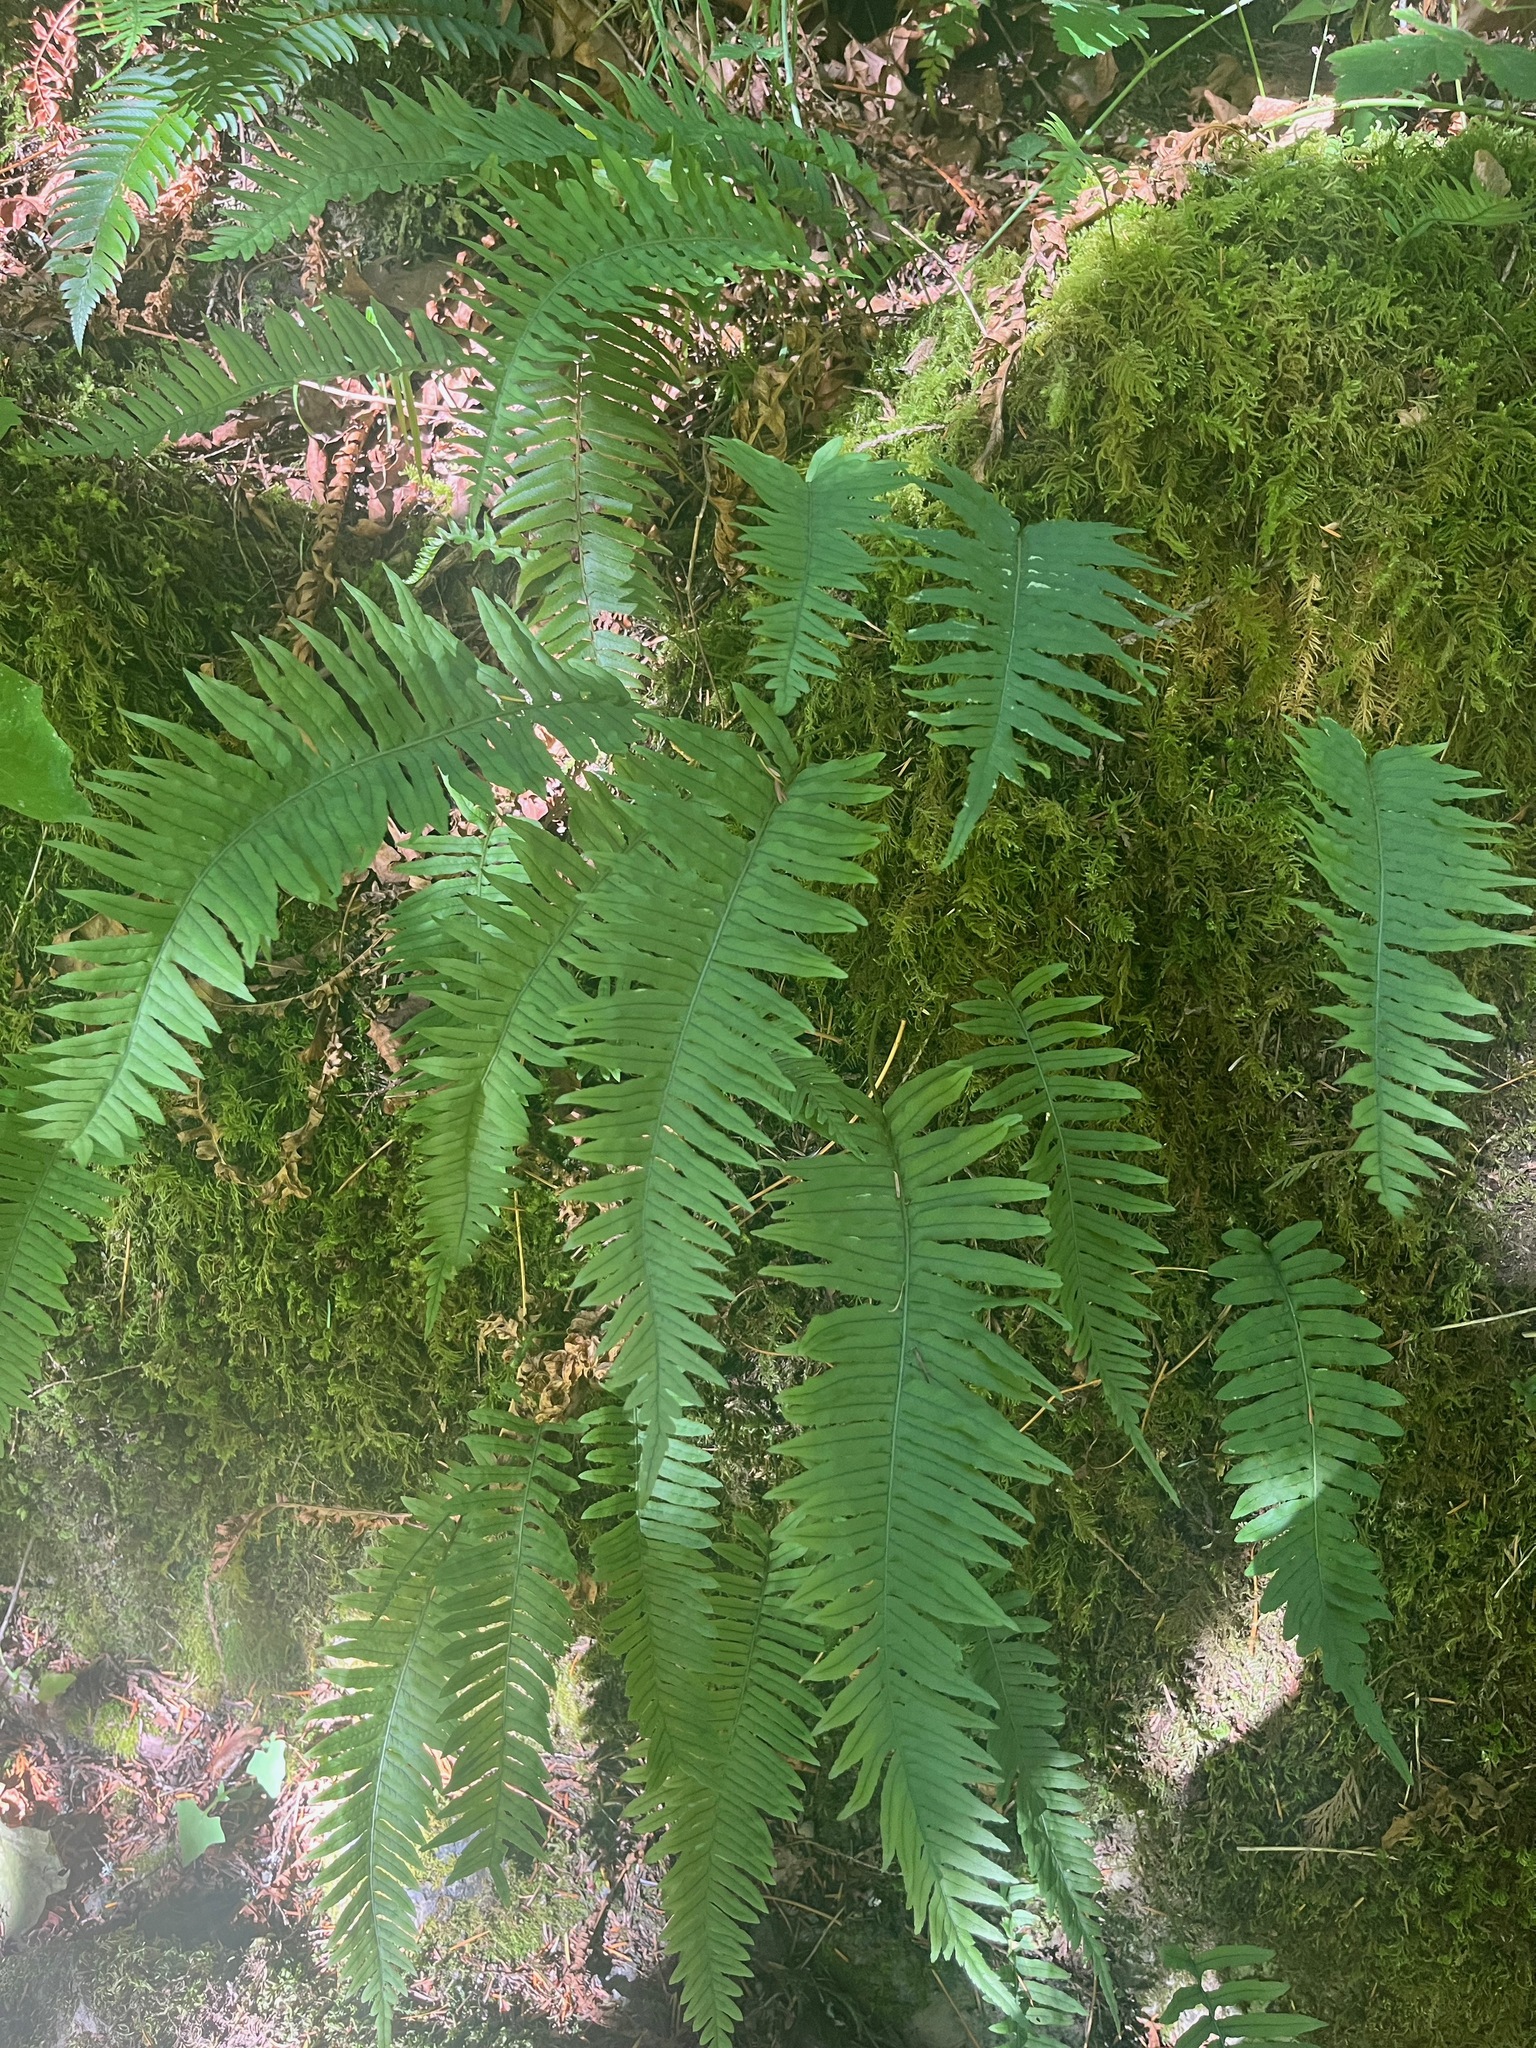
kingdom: Plantae
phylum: Tracheophyta
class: Polypodiopsida
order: Polypodiales
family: Polypodiaceae
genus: Polypodium
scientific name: Polypodium glycyrrhiza
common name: Licorice fern
